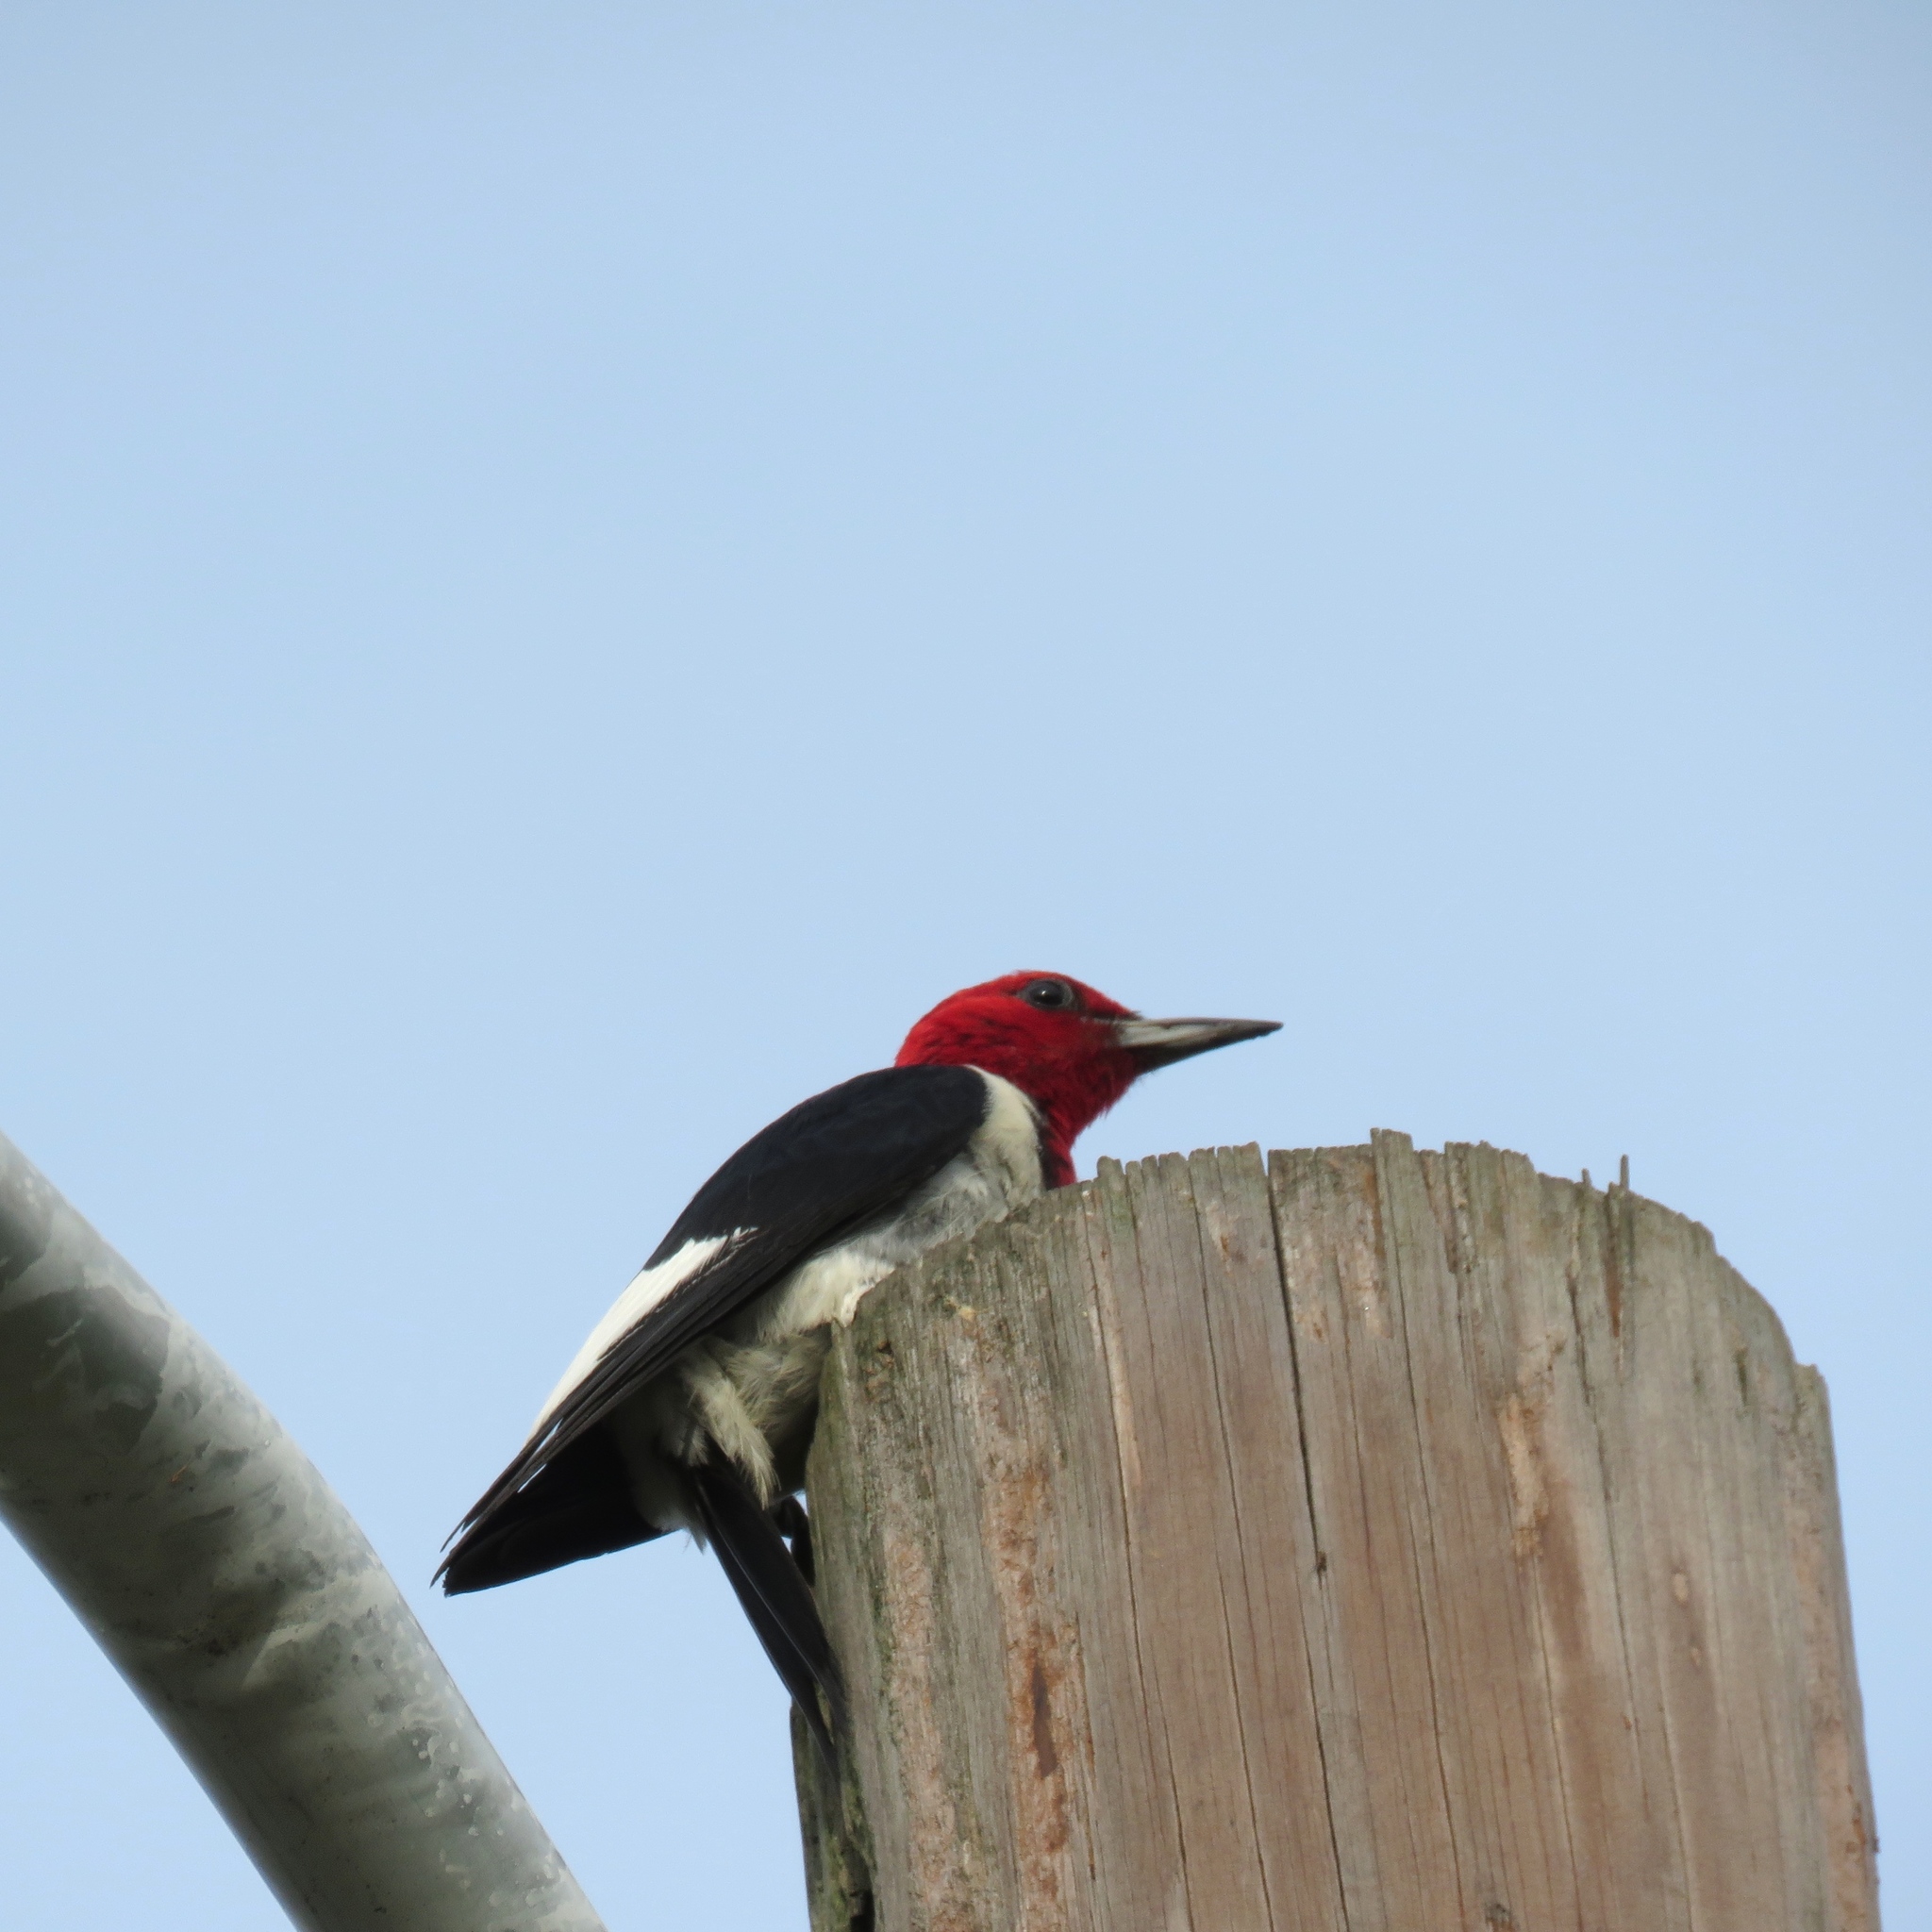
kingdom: Animalia
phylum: Chordata
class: Aves
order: Piciformes
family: Picidae
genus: Melanerpes
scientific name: Melanerpes erythrocephalus
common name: Red-headed woodpecker
